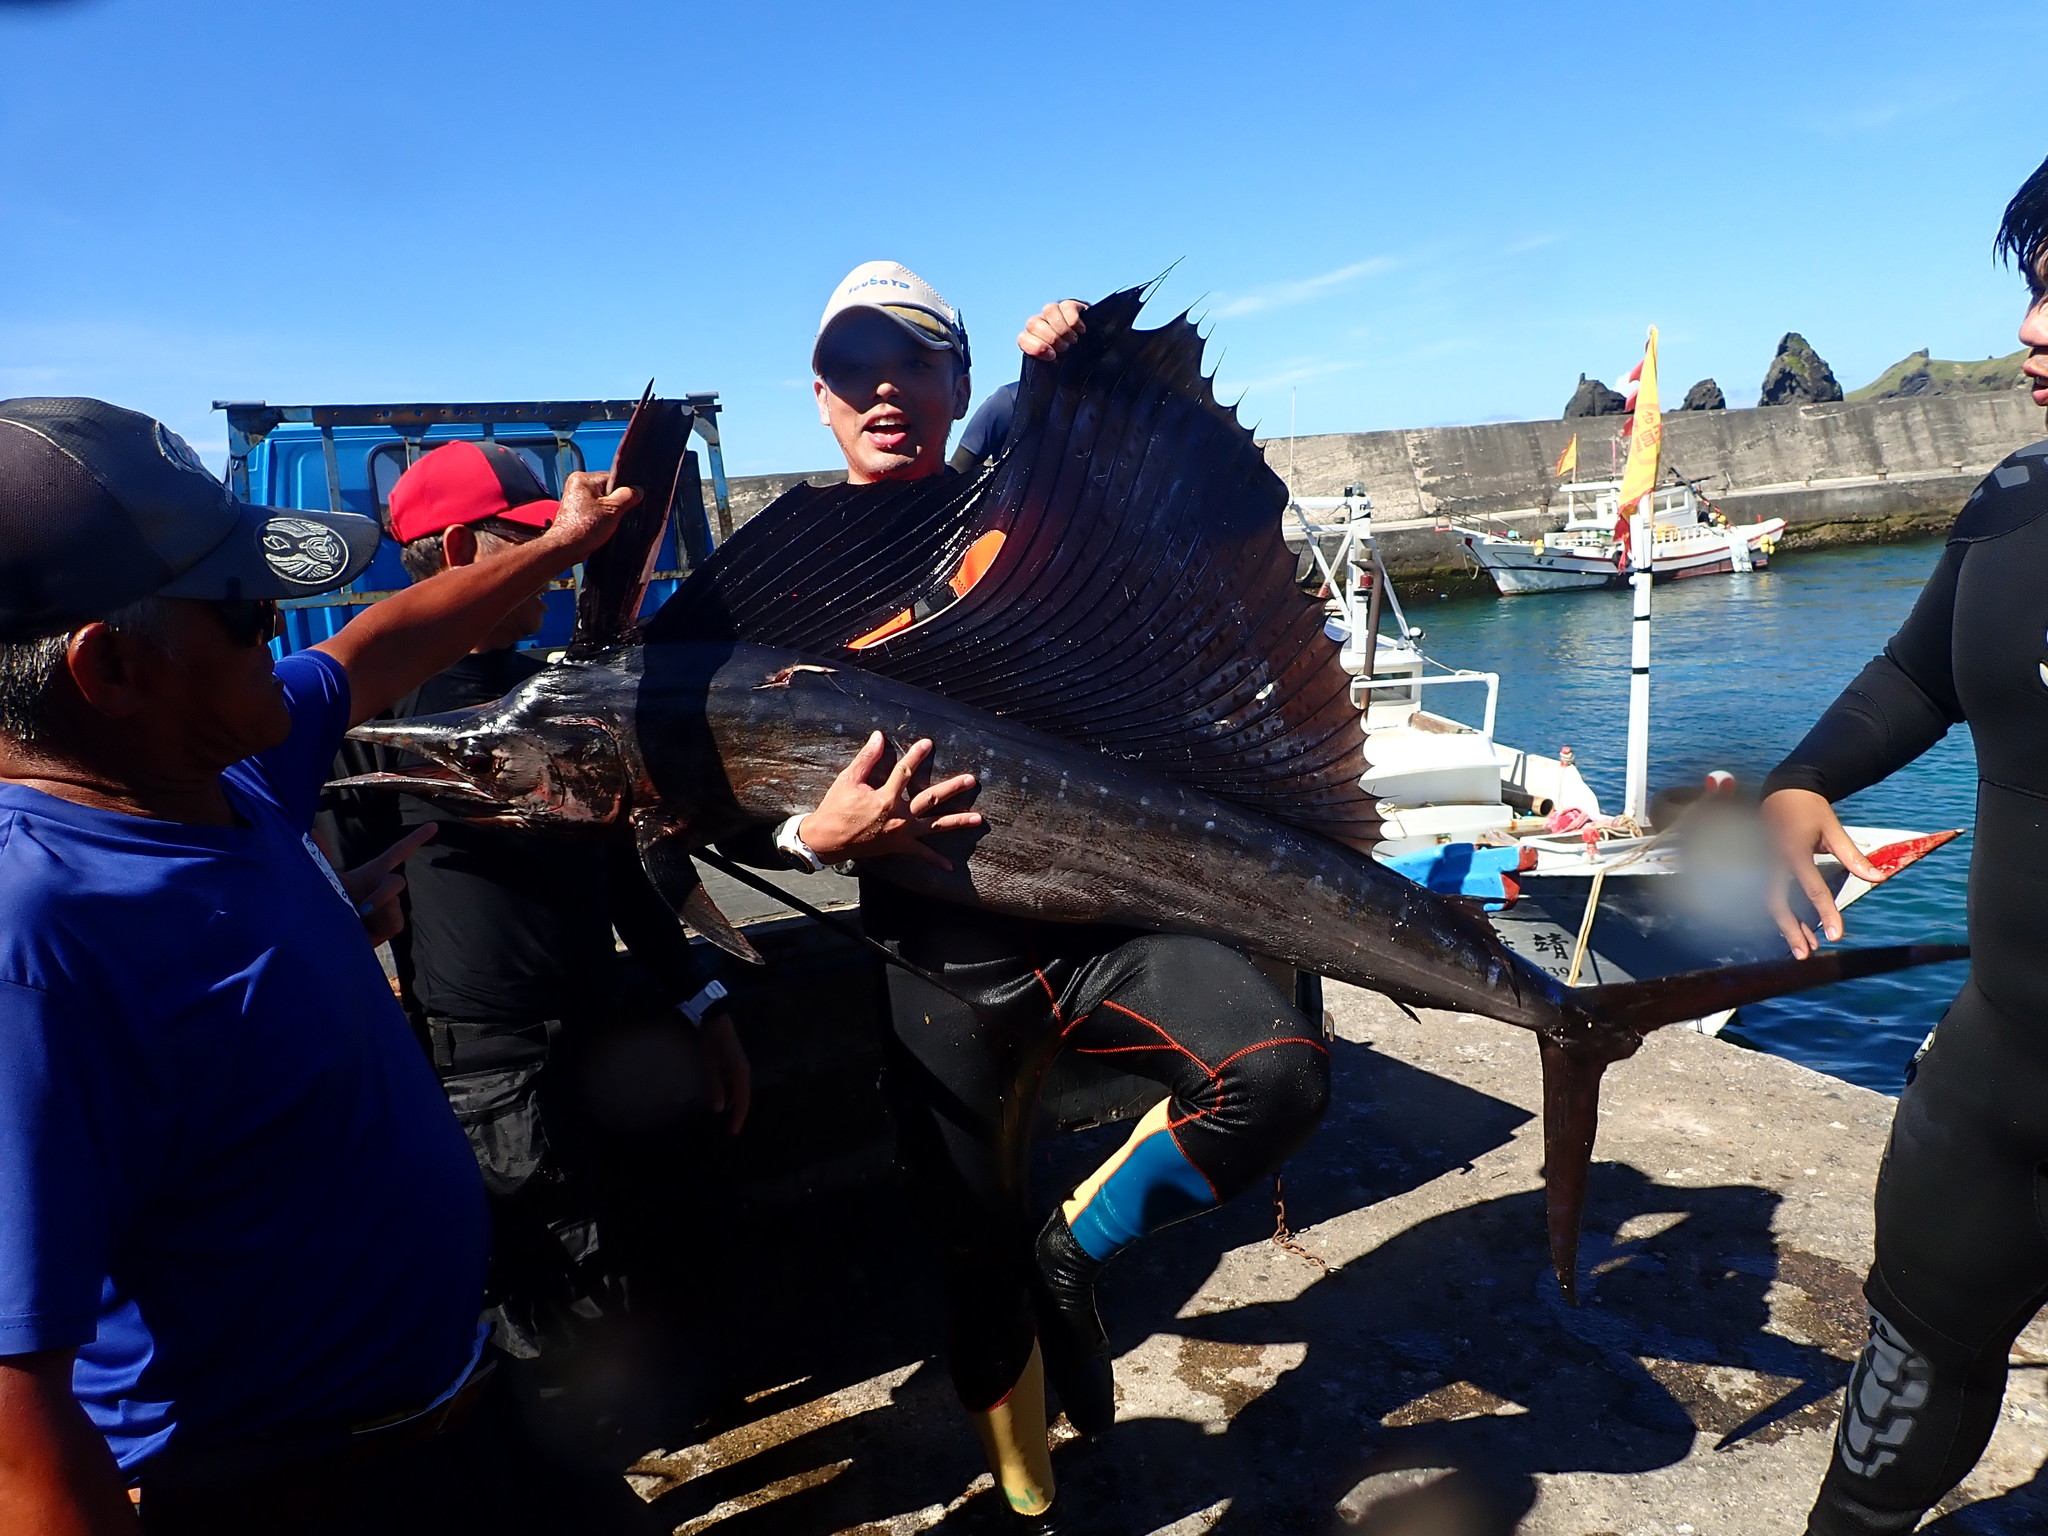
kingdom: Animalia
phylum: Chordata
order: Perciformes
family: Istiophoridae
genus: Istiophorus
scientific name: Istiophorus platypterus
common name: Sailfish
